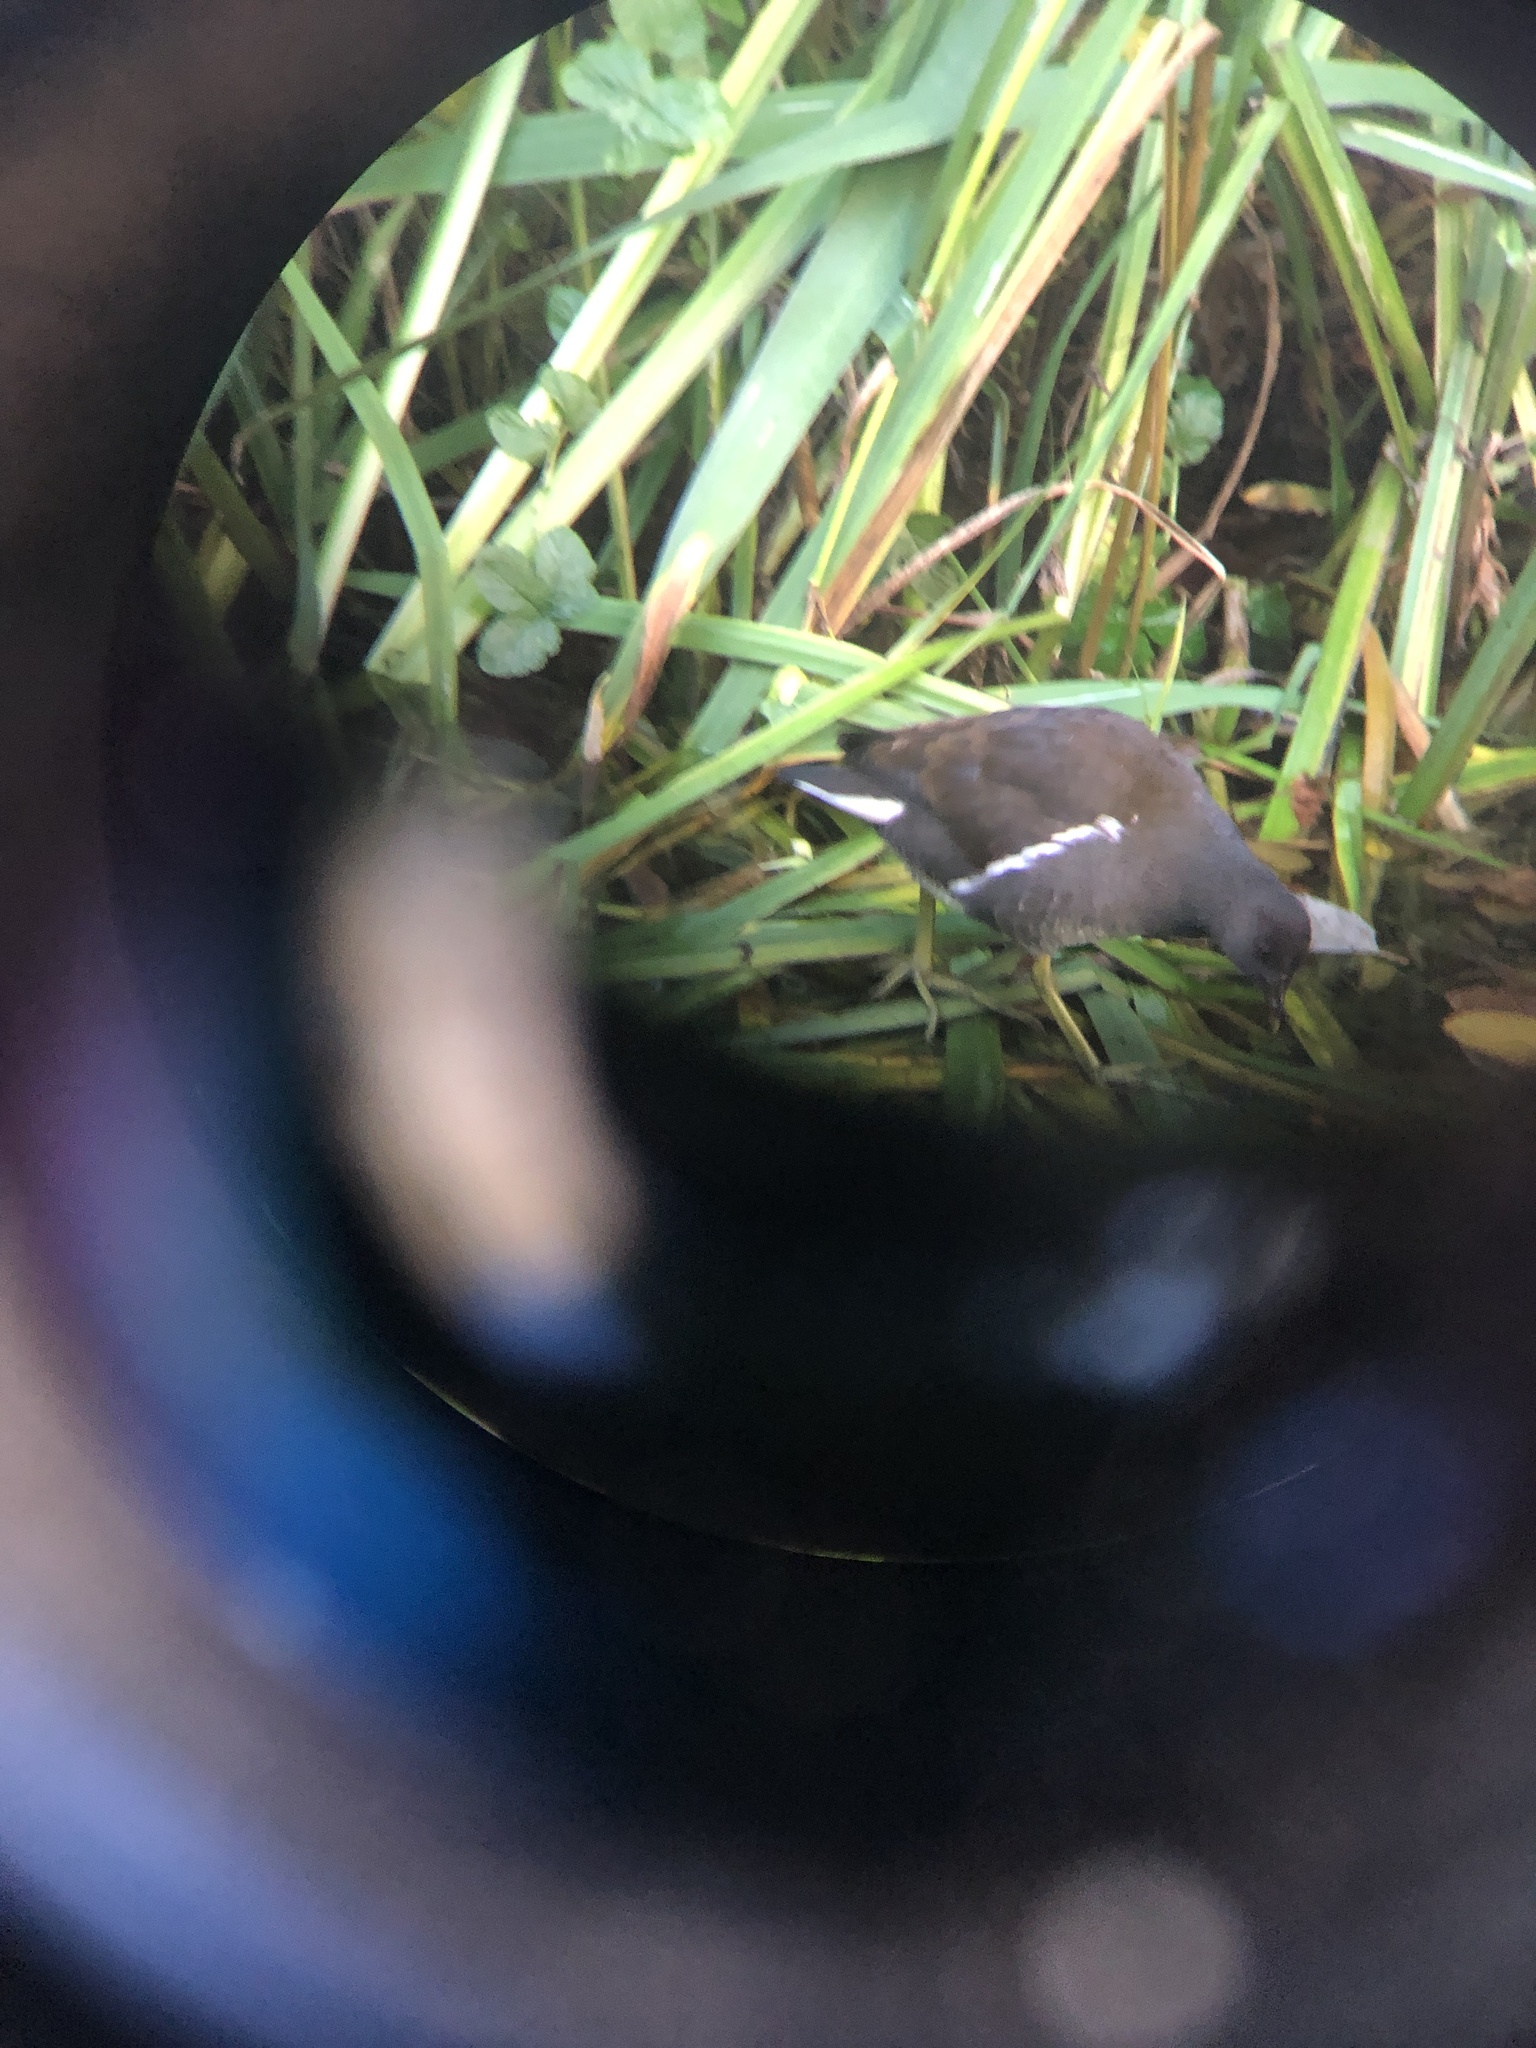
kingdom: Animalia
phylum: Chordata
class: Aves
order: Gruiformes
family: Rallidae
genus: Gallinula
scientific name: Gallinula chloropus
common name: Common moorhen
